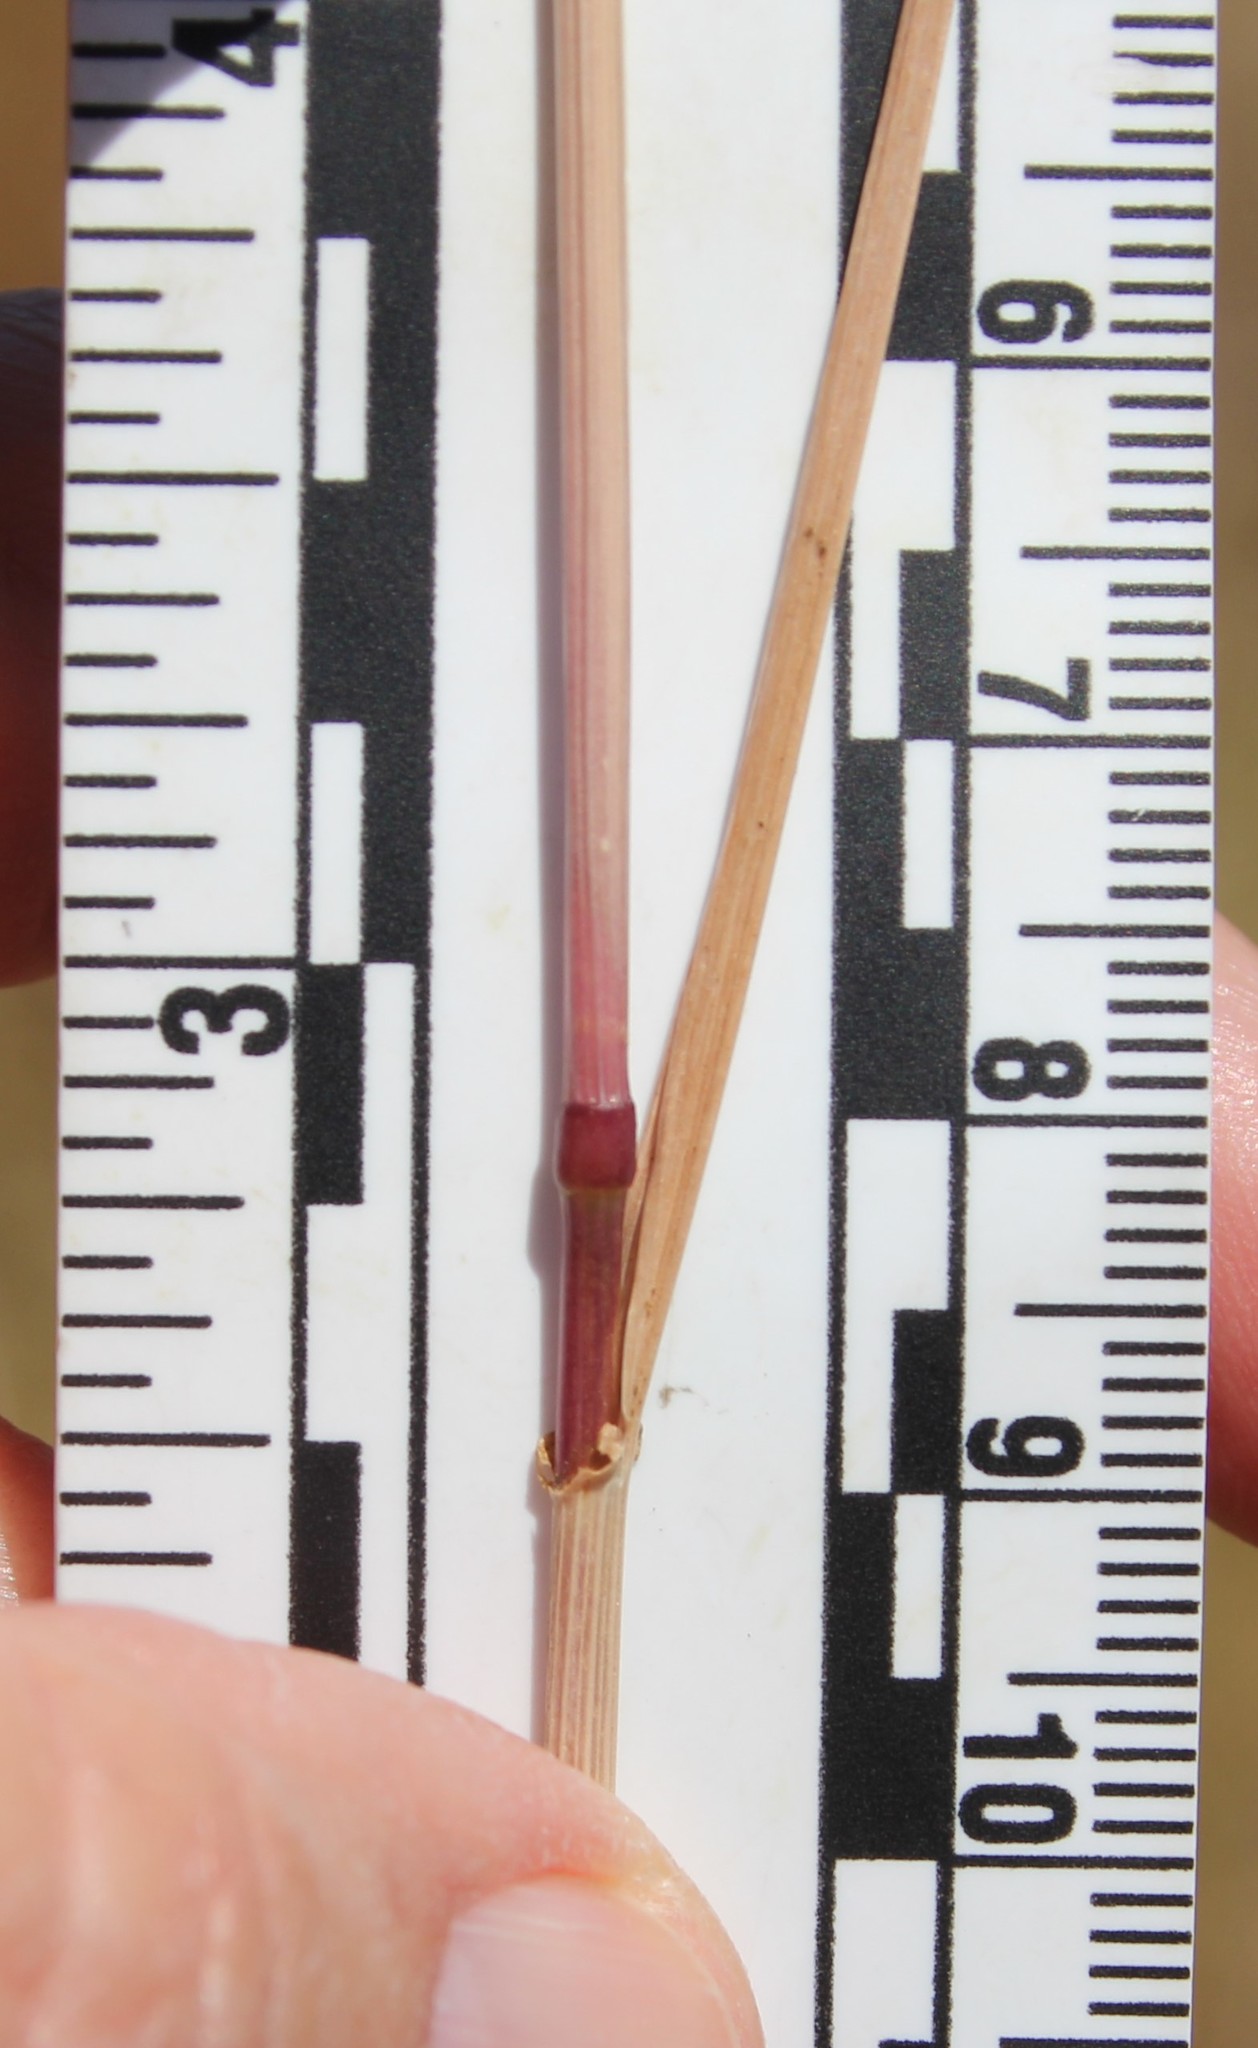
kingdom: Plantae
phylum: Tracheophyta
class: Liliopsida
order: Poales
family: Poaceae
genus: Lolium
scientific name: Lolium perenne
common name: Perennial ryegrass
